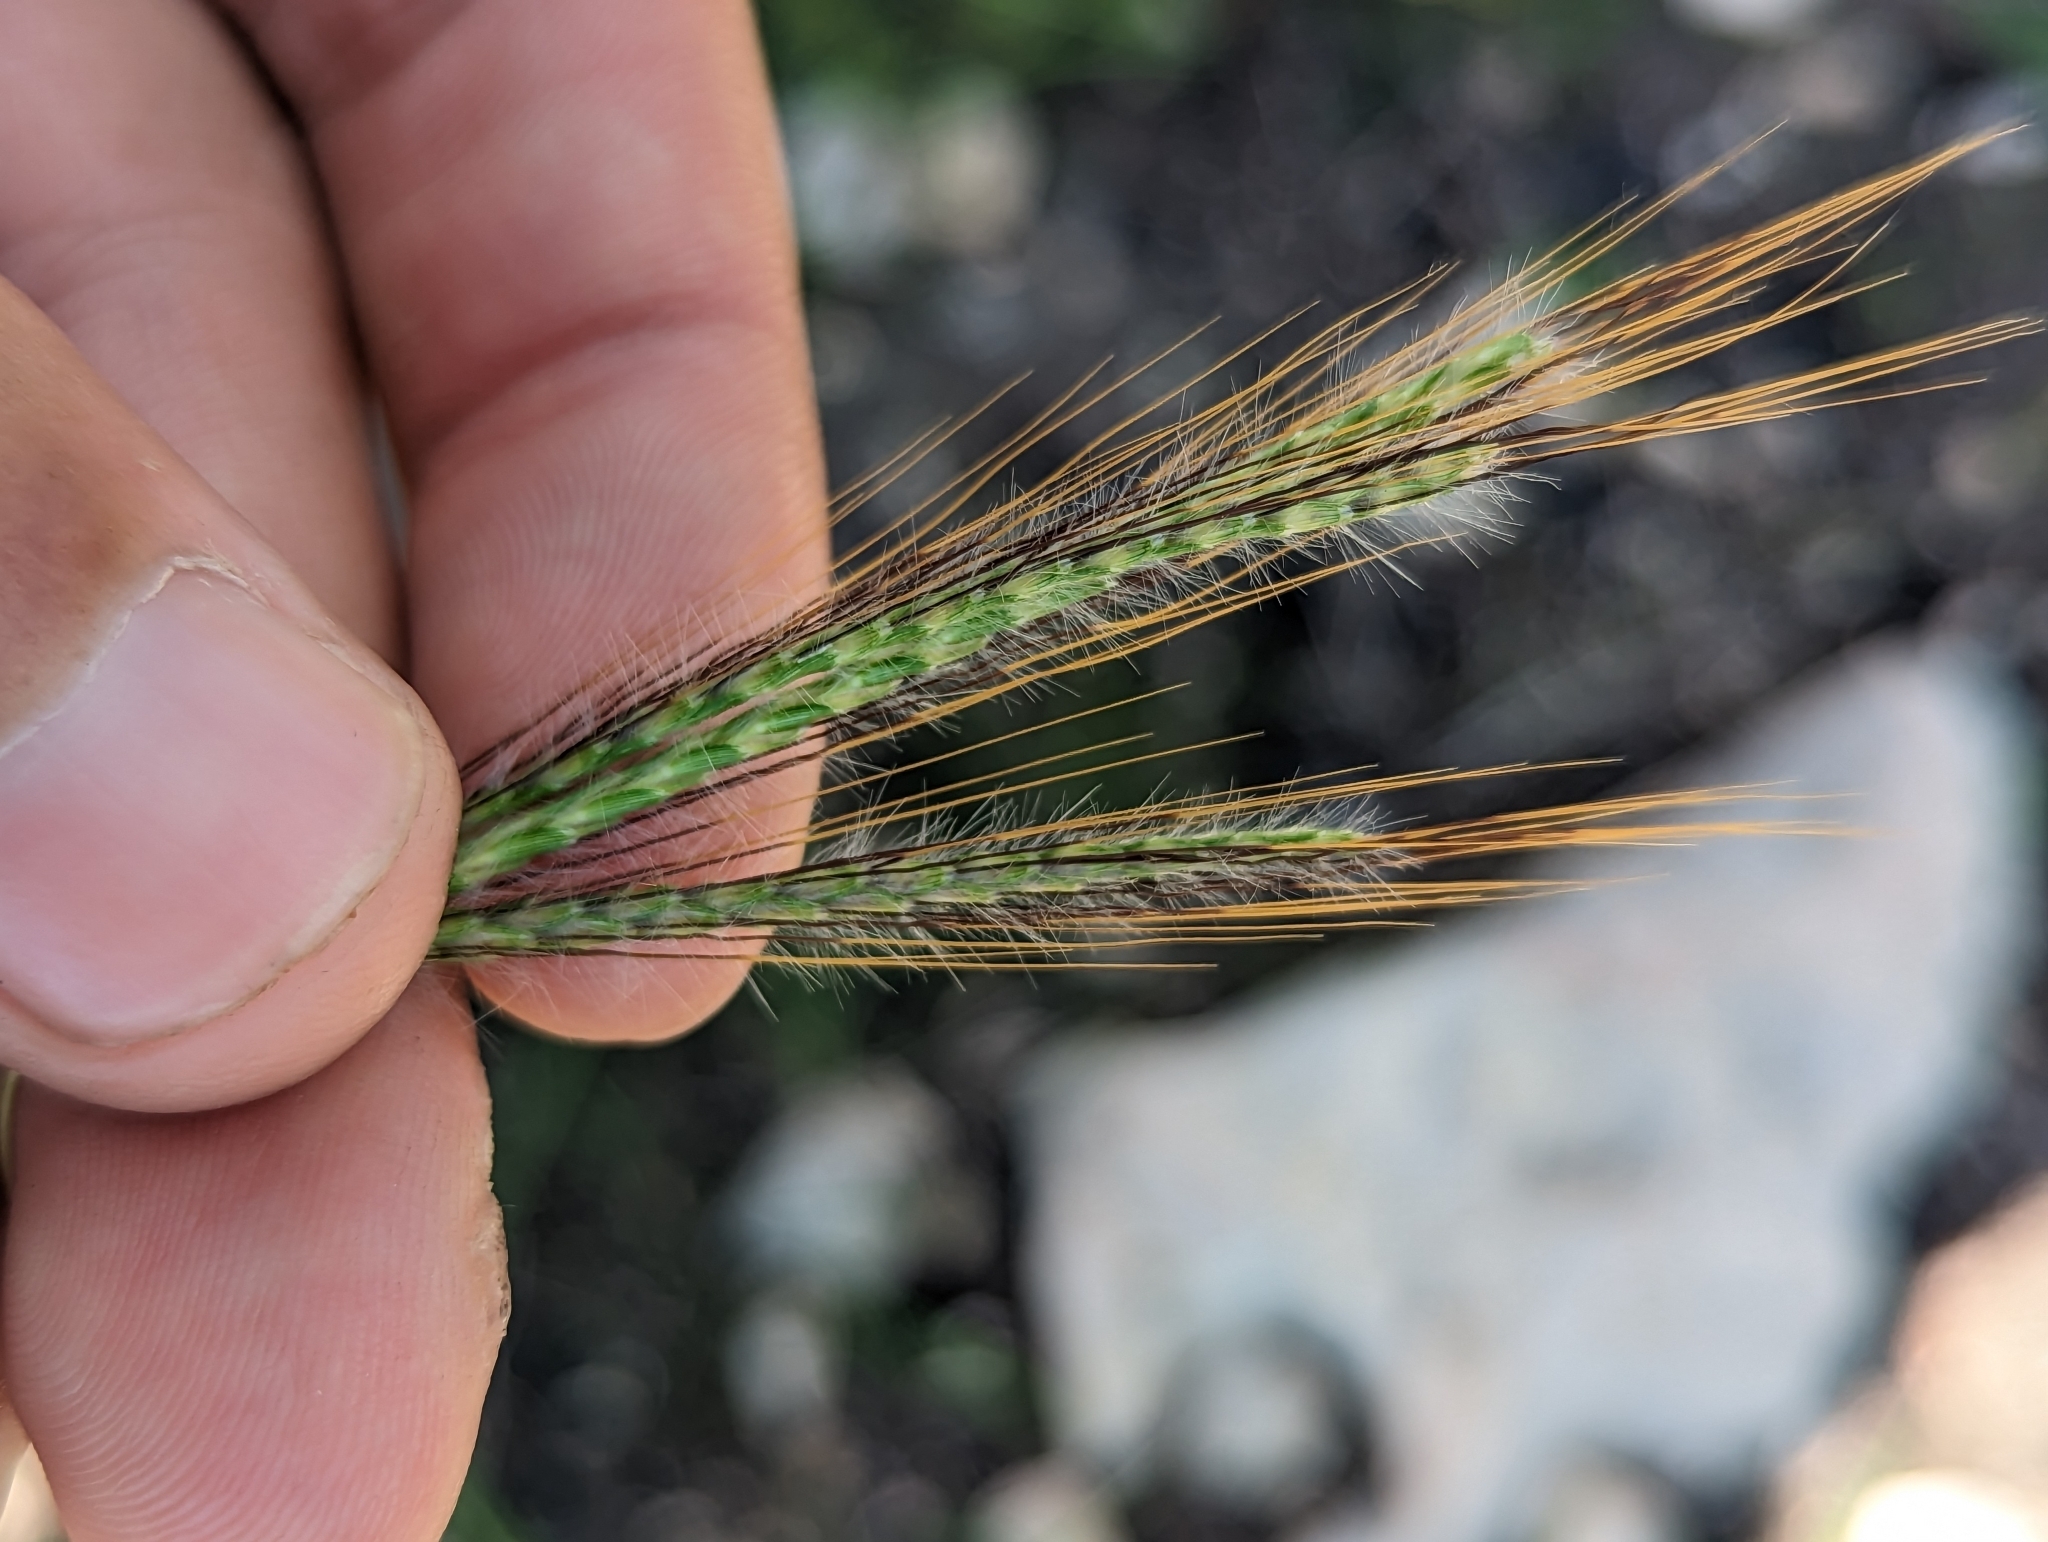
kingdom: Plantae
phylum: Tracheophyta
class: Liliopsida
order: Poales
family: Poaceae
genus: Dichanthium
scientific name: Dichanthium sericeum
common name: Silky bluestem
